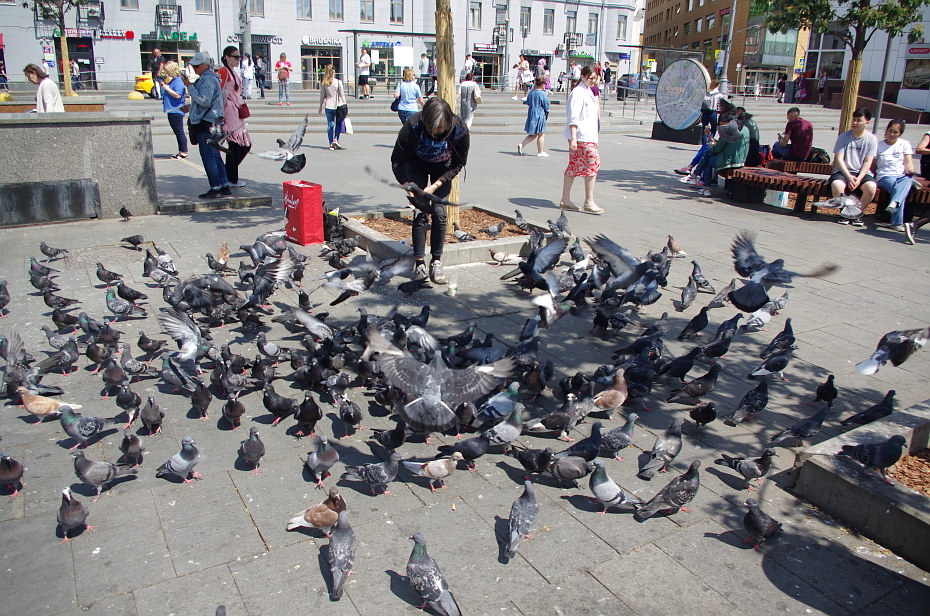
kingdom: Animalia
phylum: Chordata
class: Aves
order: Columbiformes
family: Columbidae
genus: Columba
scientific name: Columba livia
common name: Rock pigeon
